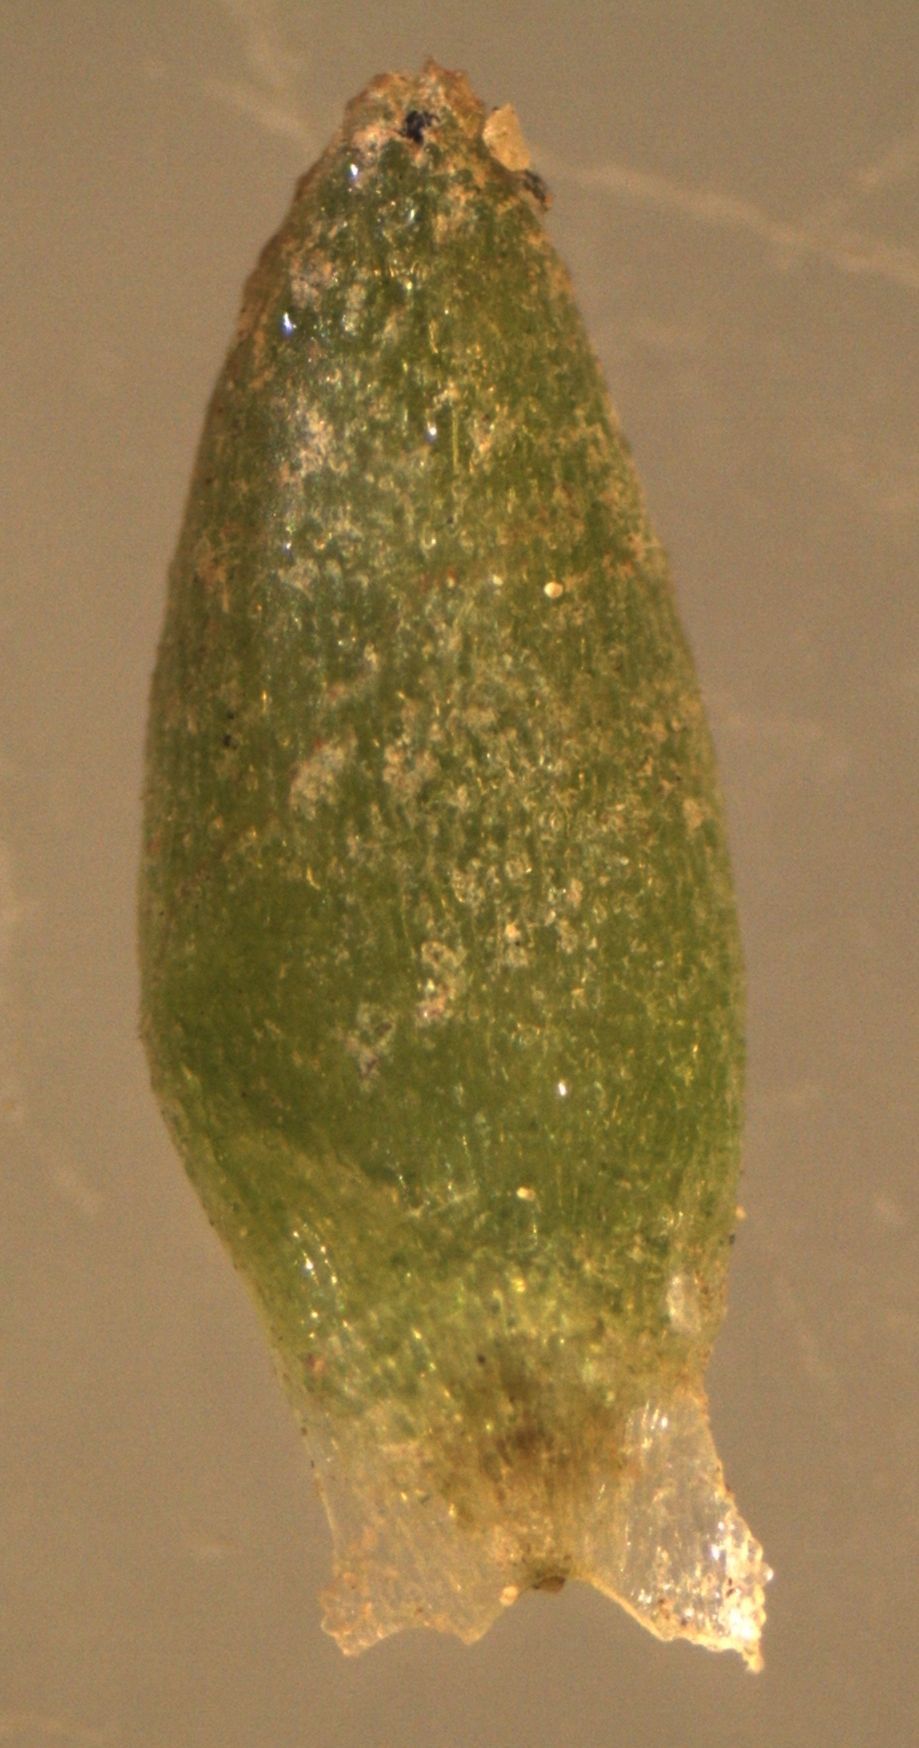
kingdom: Plantae
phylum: Tracheophyta
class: Magnoliopsida
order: Saxifragales
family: Crassulaceae
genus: Crassula
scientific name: Crassula sieberiana
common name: Siberian pygmyweed
